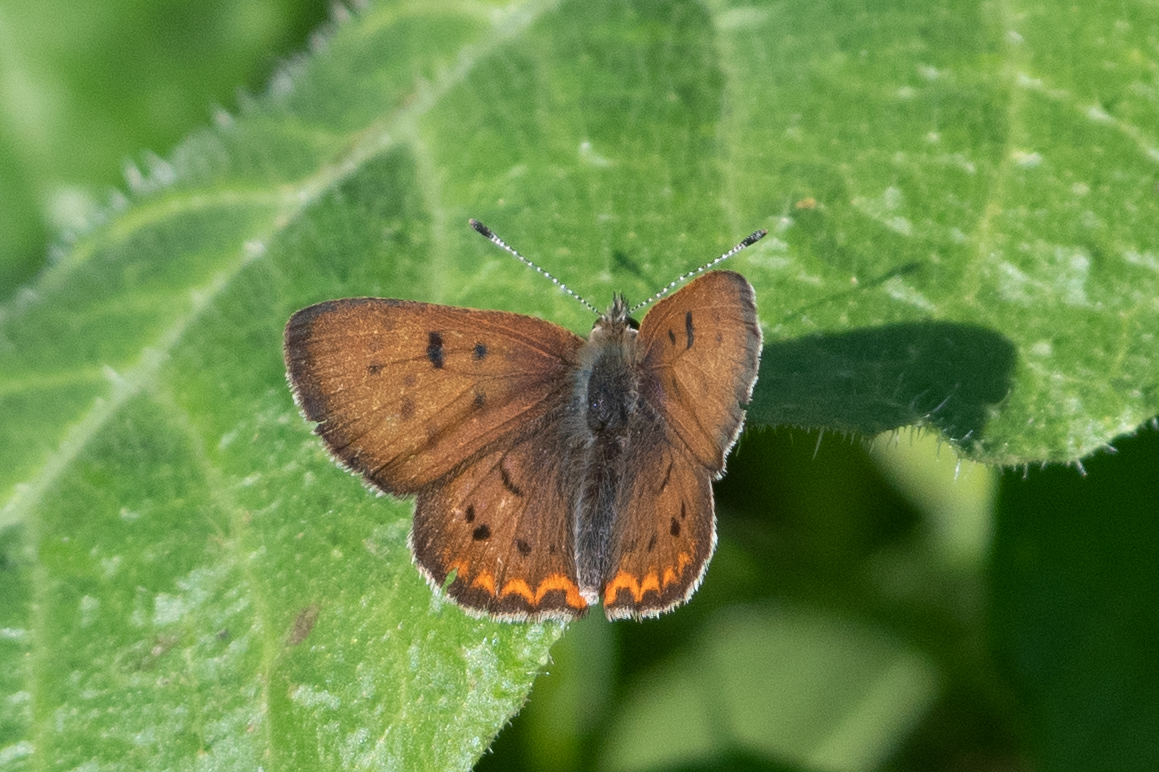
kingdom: Animalia
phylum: Arthropoda
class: Insecta
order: Lepidoptera
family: Lycaenidae
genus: Tharsalea
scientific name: Tharsalea helloides
